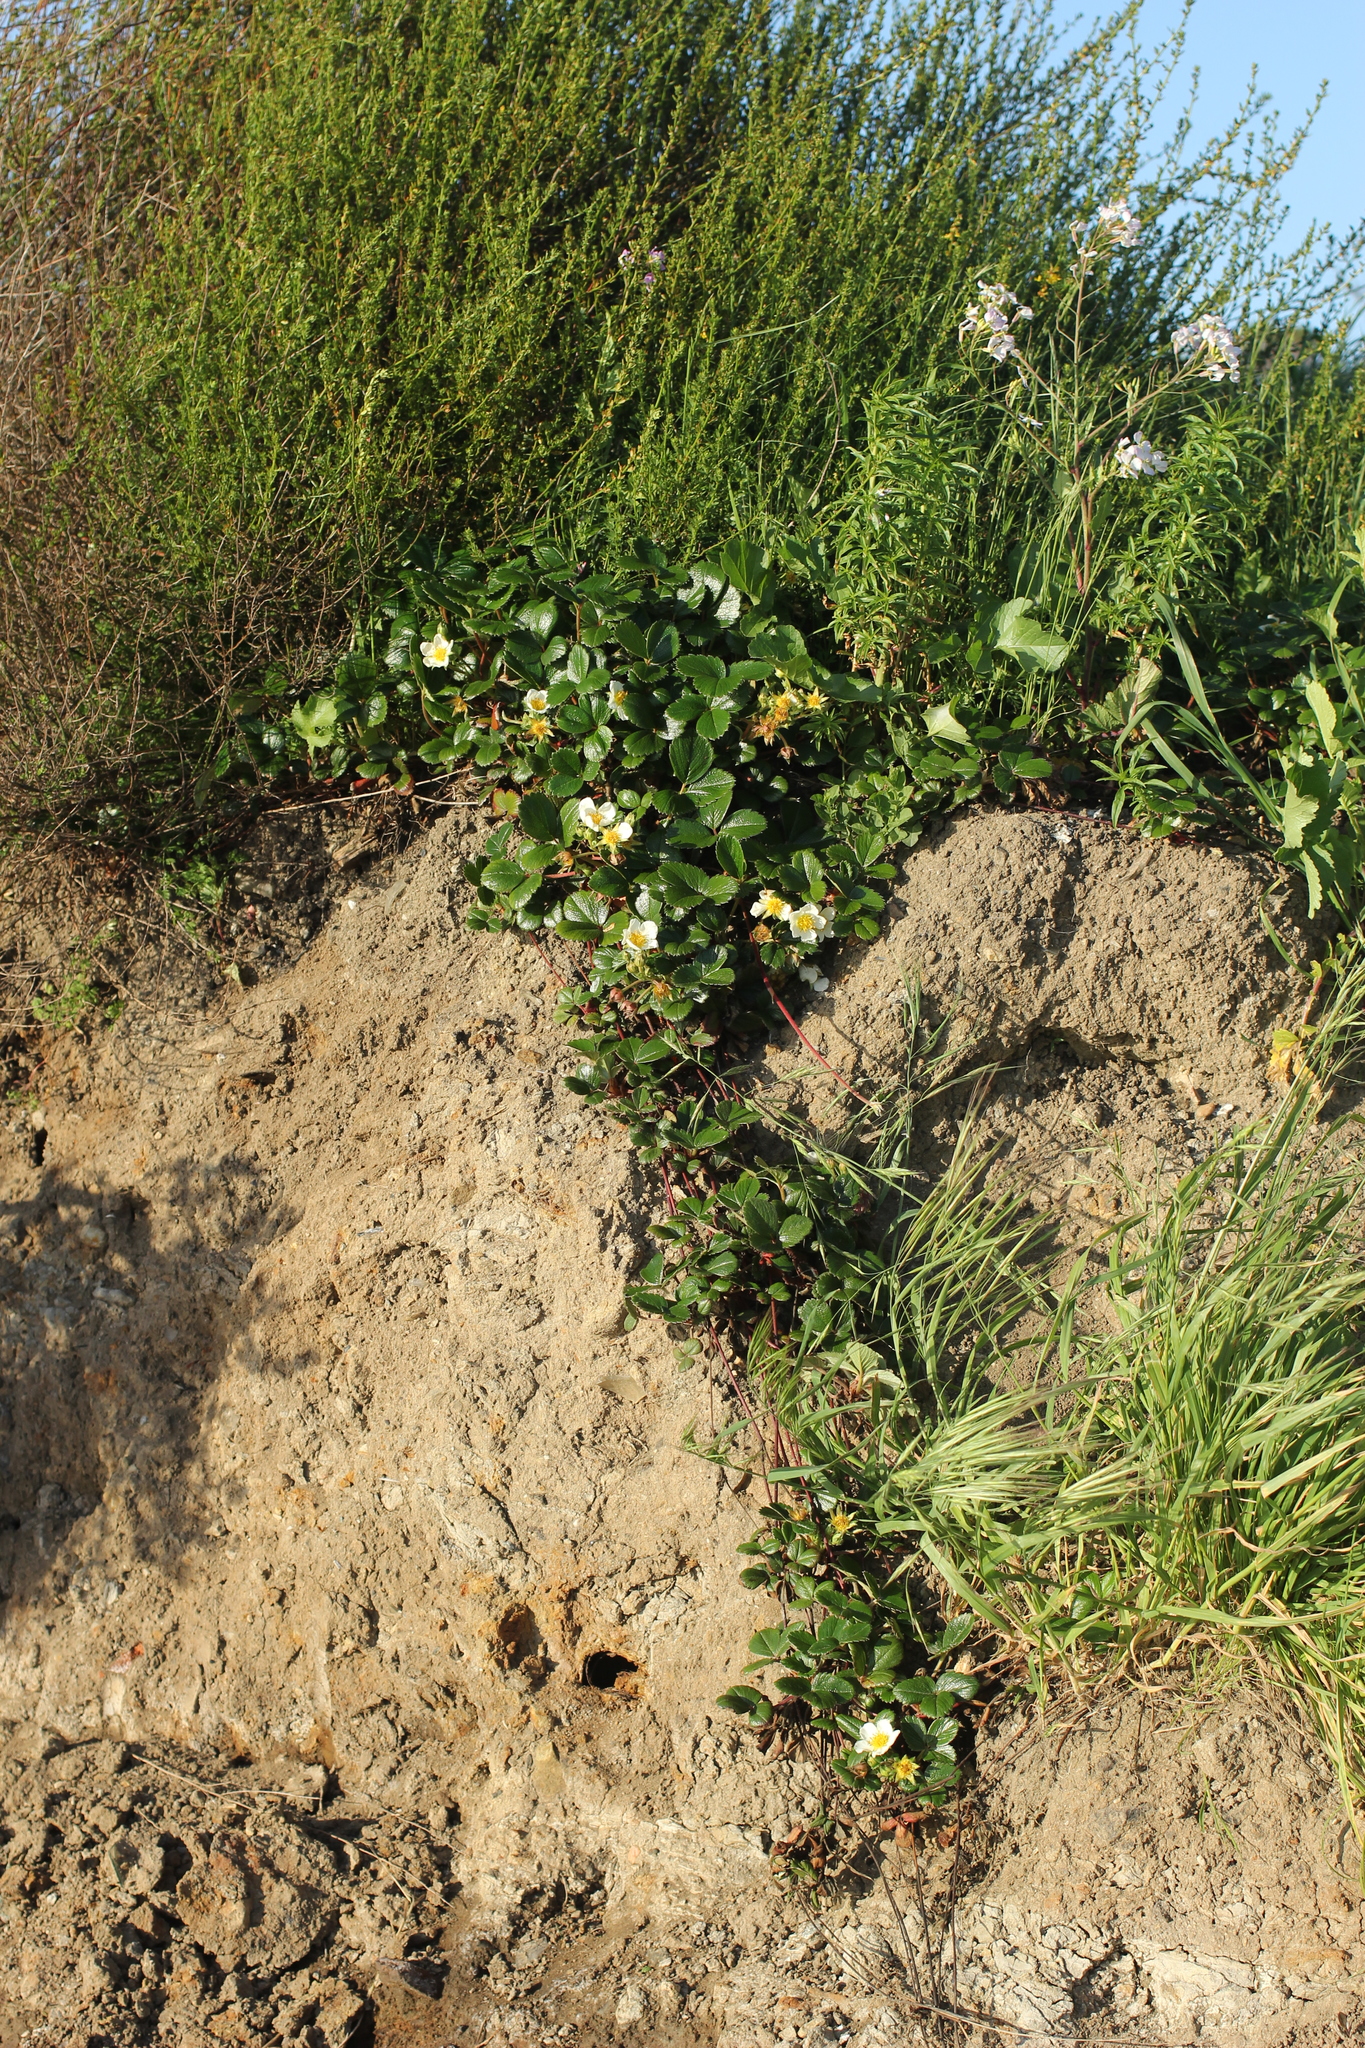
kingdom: Plantae
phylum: Tracheophyta
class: Magnoliopsida
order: Rosales
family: Rosaceae
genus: Fragaria
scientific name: Fragaria chiloensis
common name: Beach strawberry
